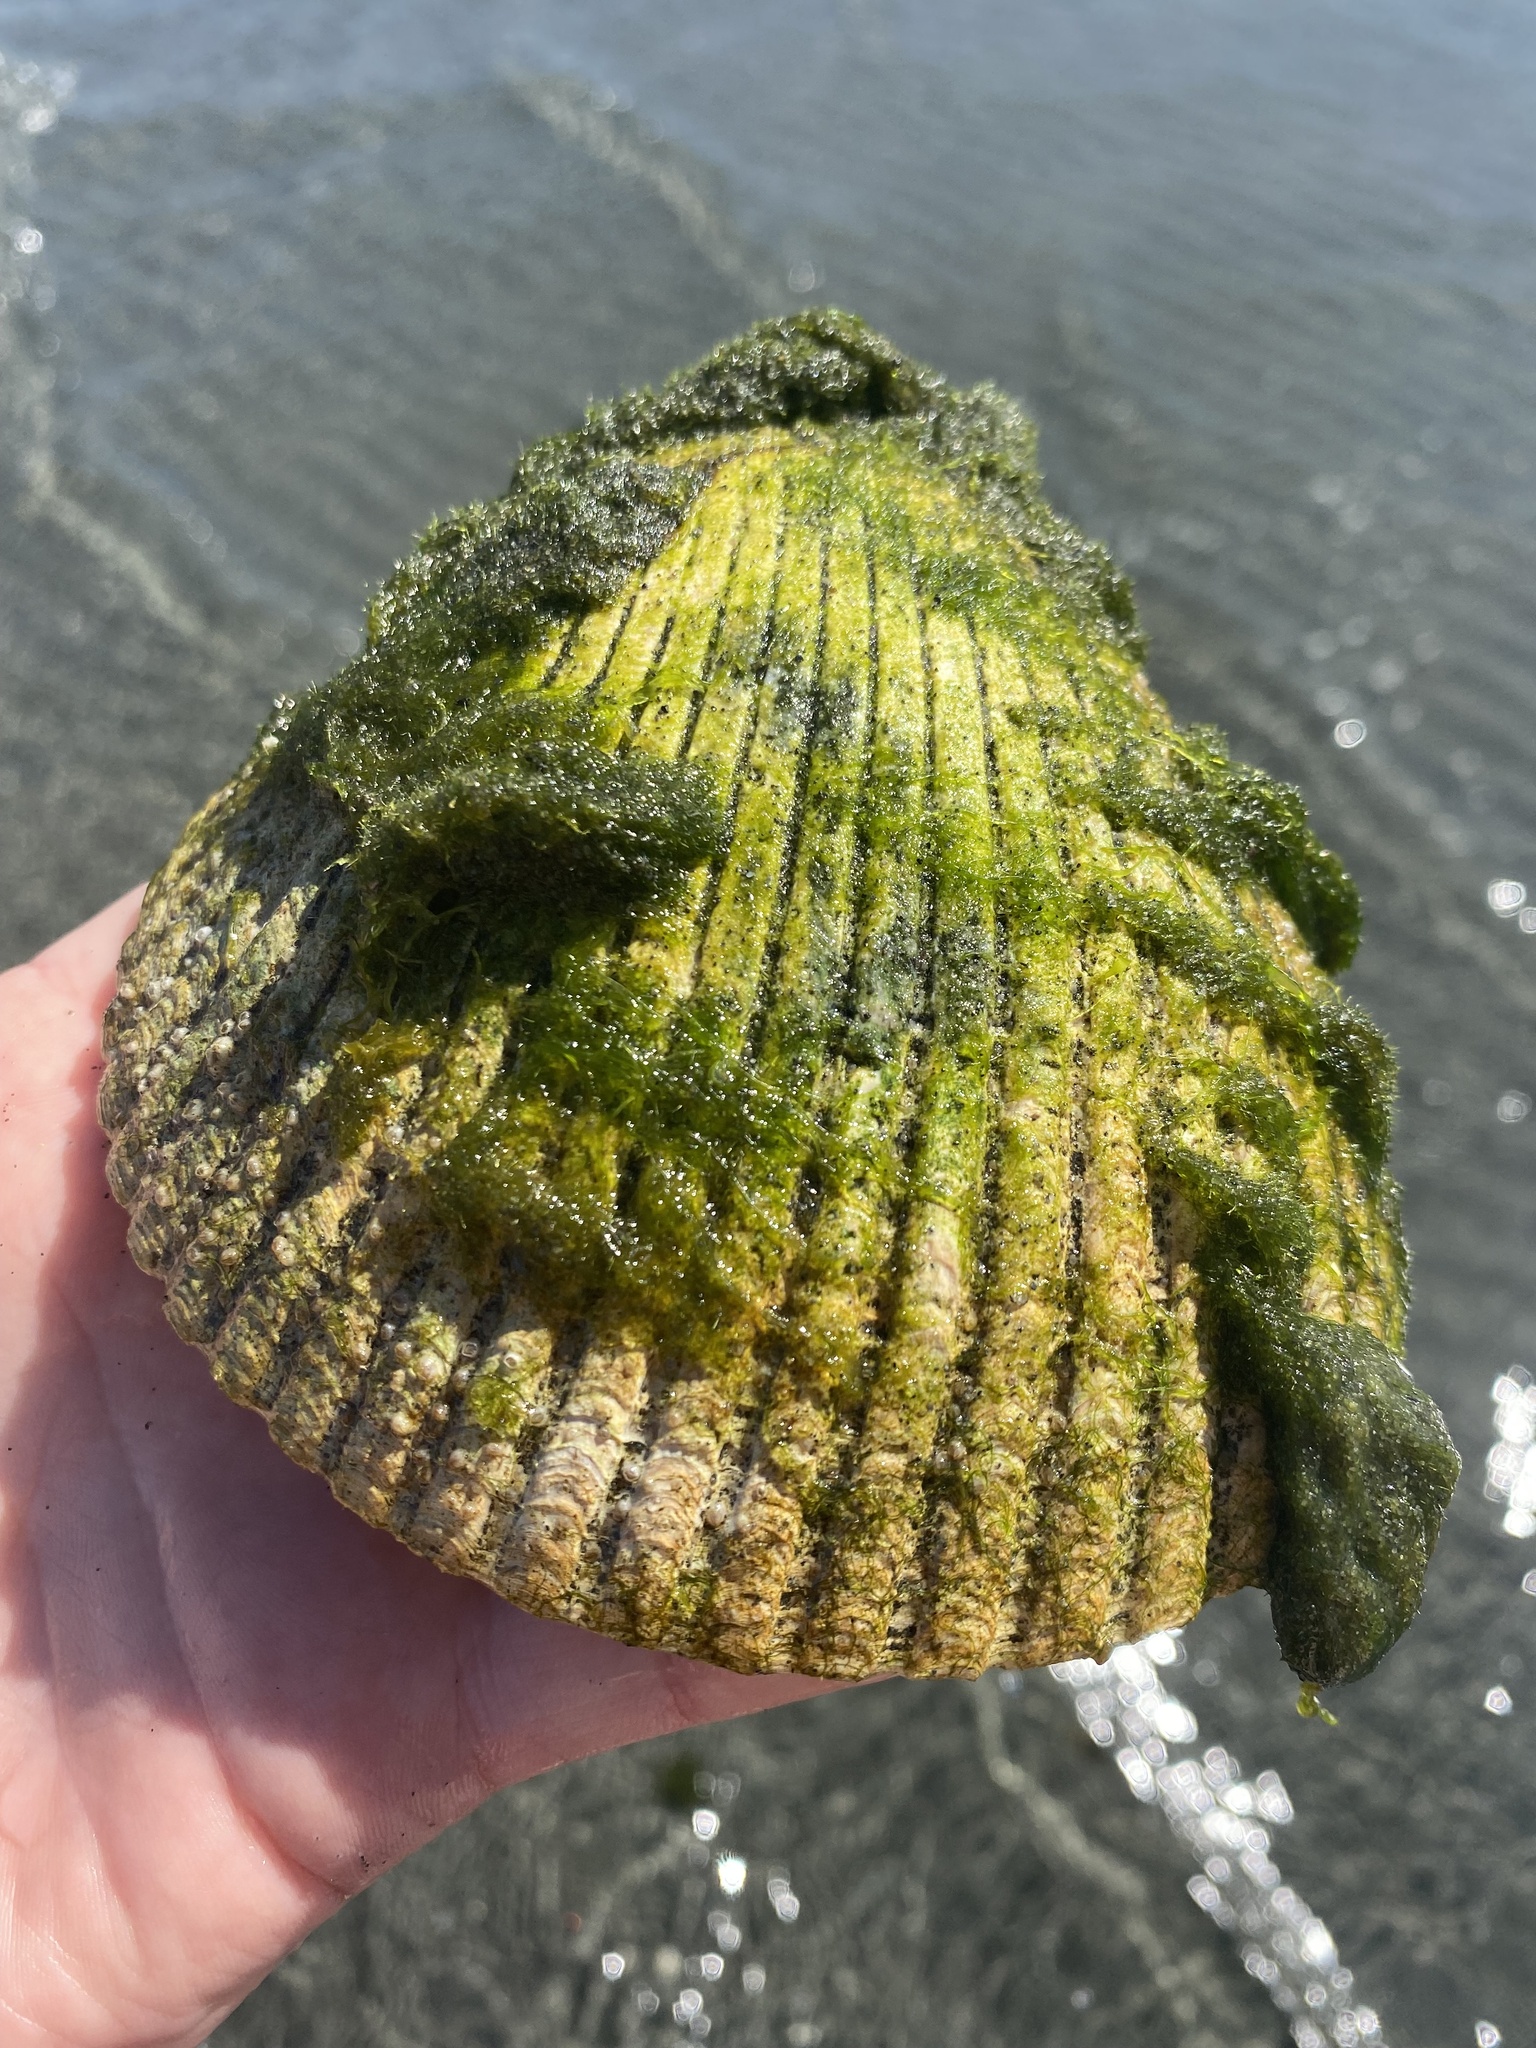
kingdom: Animalia
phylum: Mollusca
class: Bivalvia
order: Cardiida
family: Cardiidae
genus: Clinocardium
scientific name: Clinocardium nuttallii
